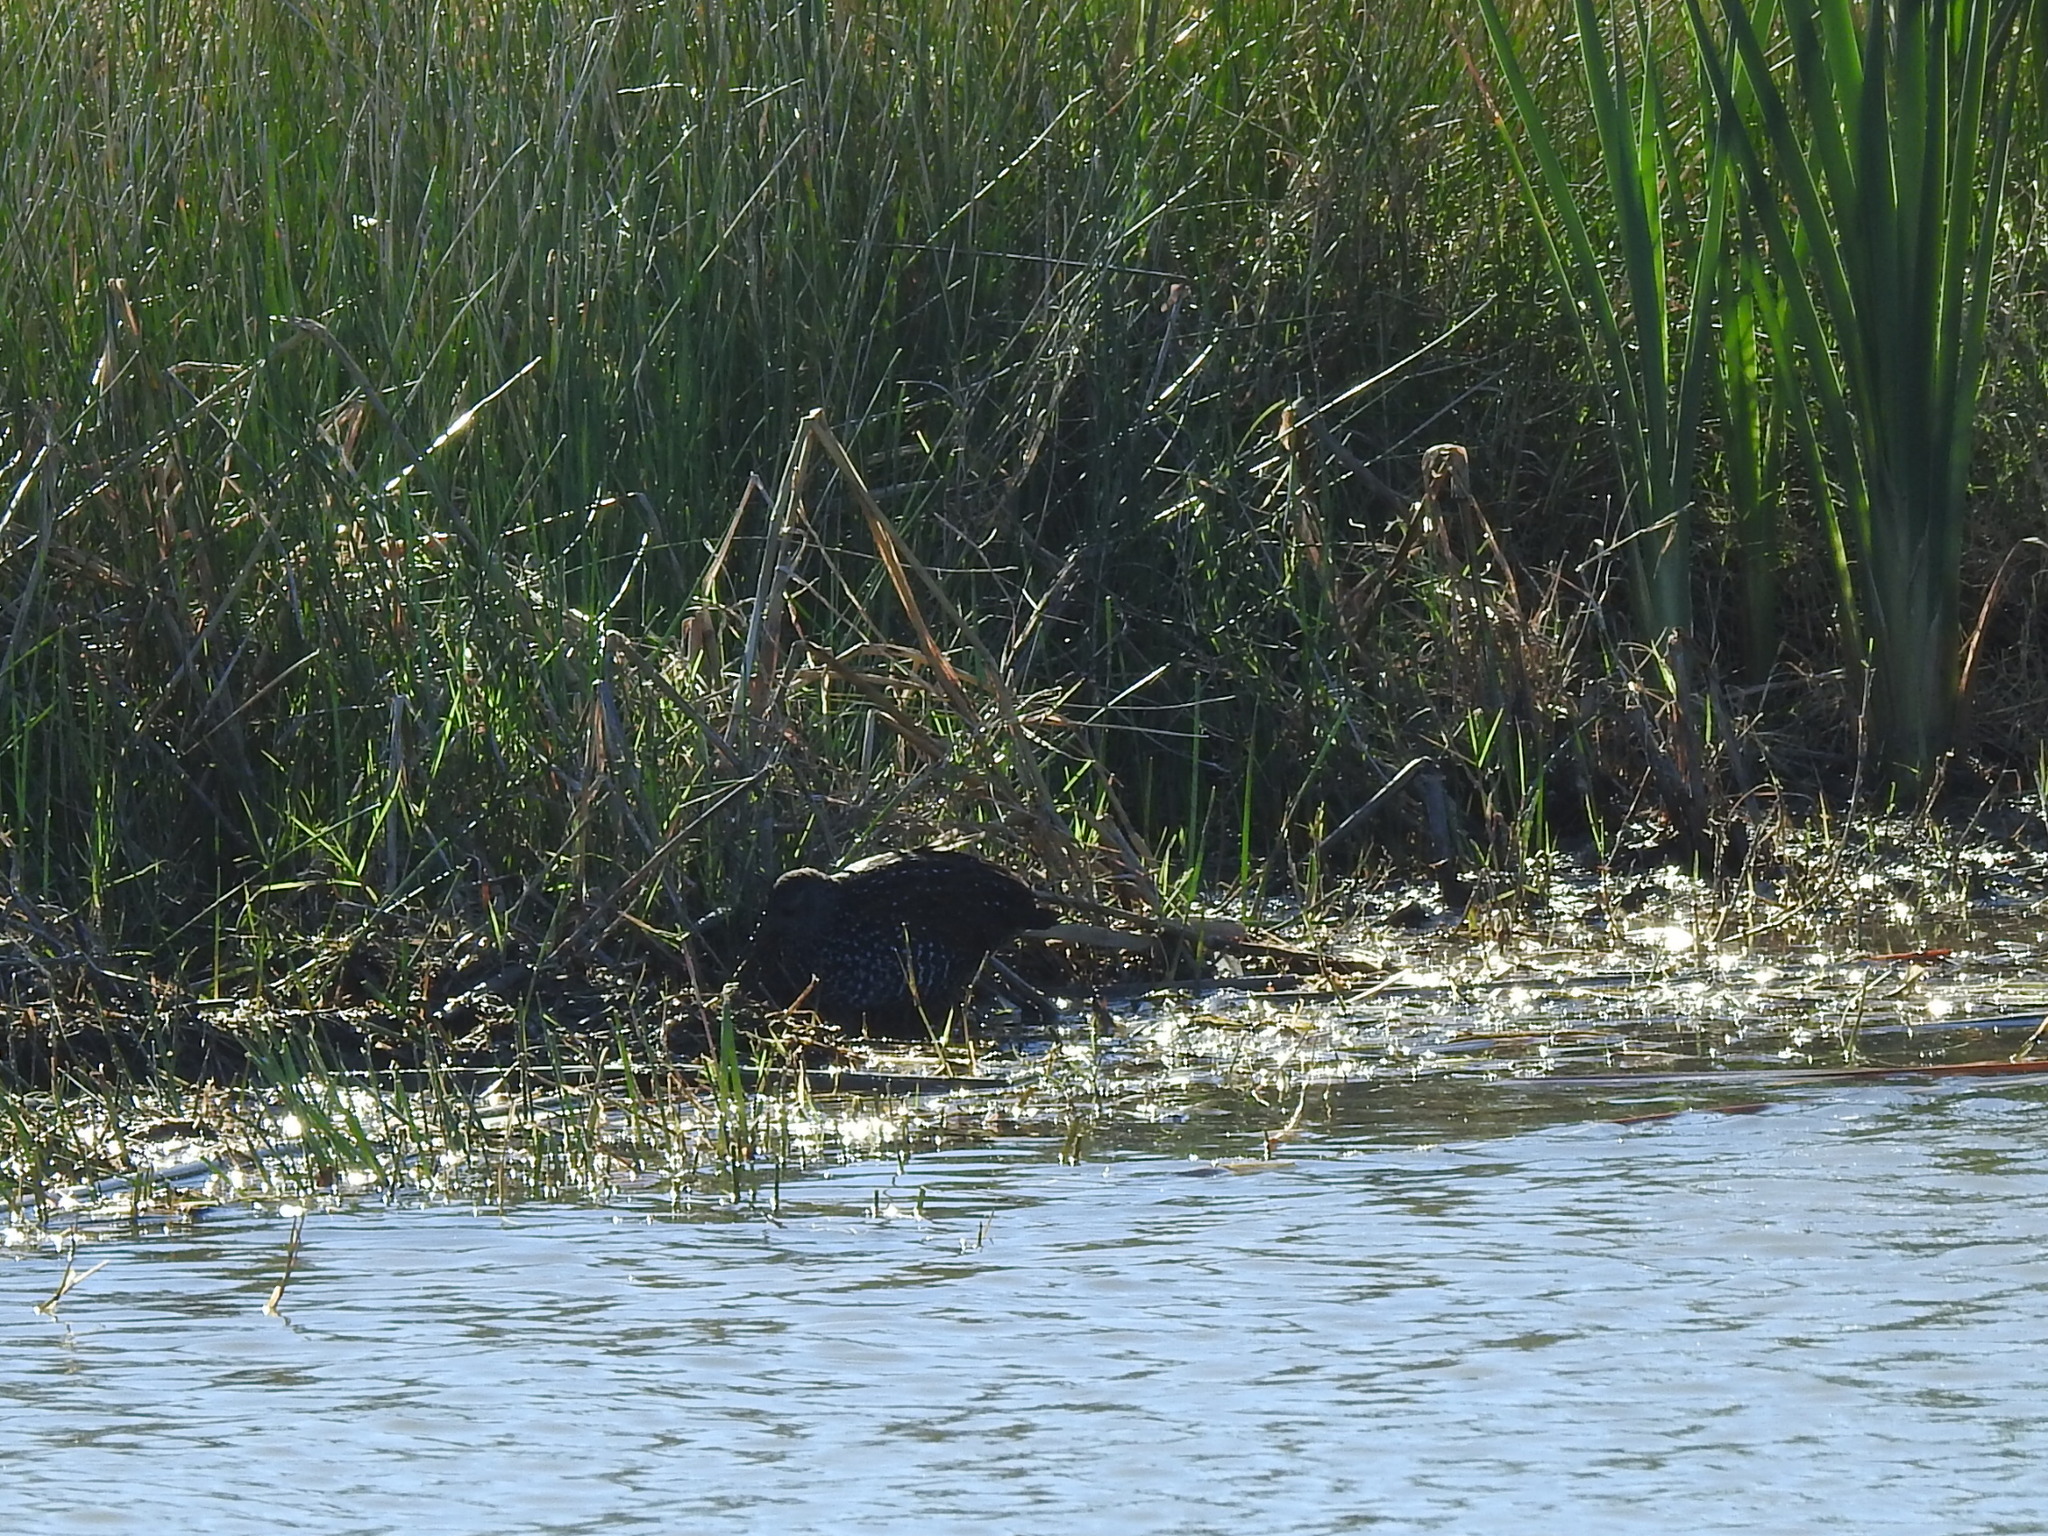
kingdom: Animalia
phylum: Chordata
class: Aves
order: Gruiformes
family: Rallidae
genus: Pardirallus
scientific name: Pardirallus maculatus
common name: Spotted rail
